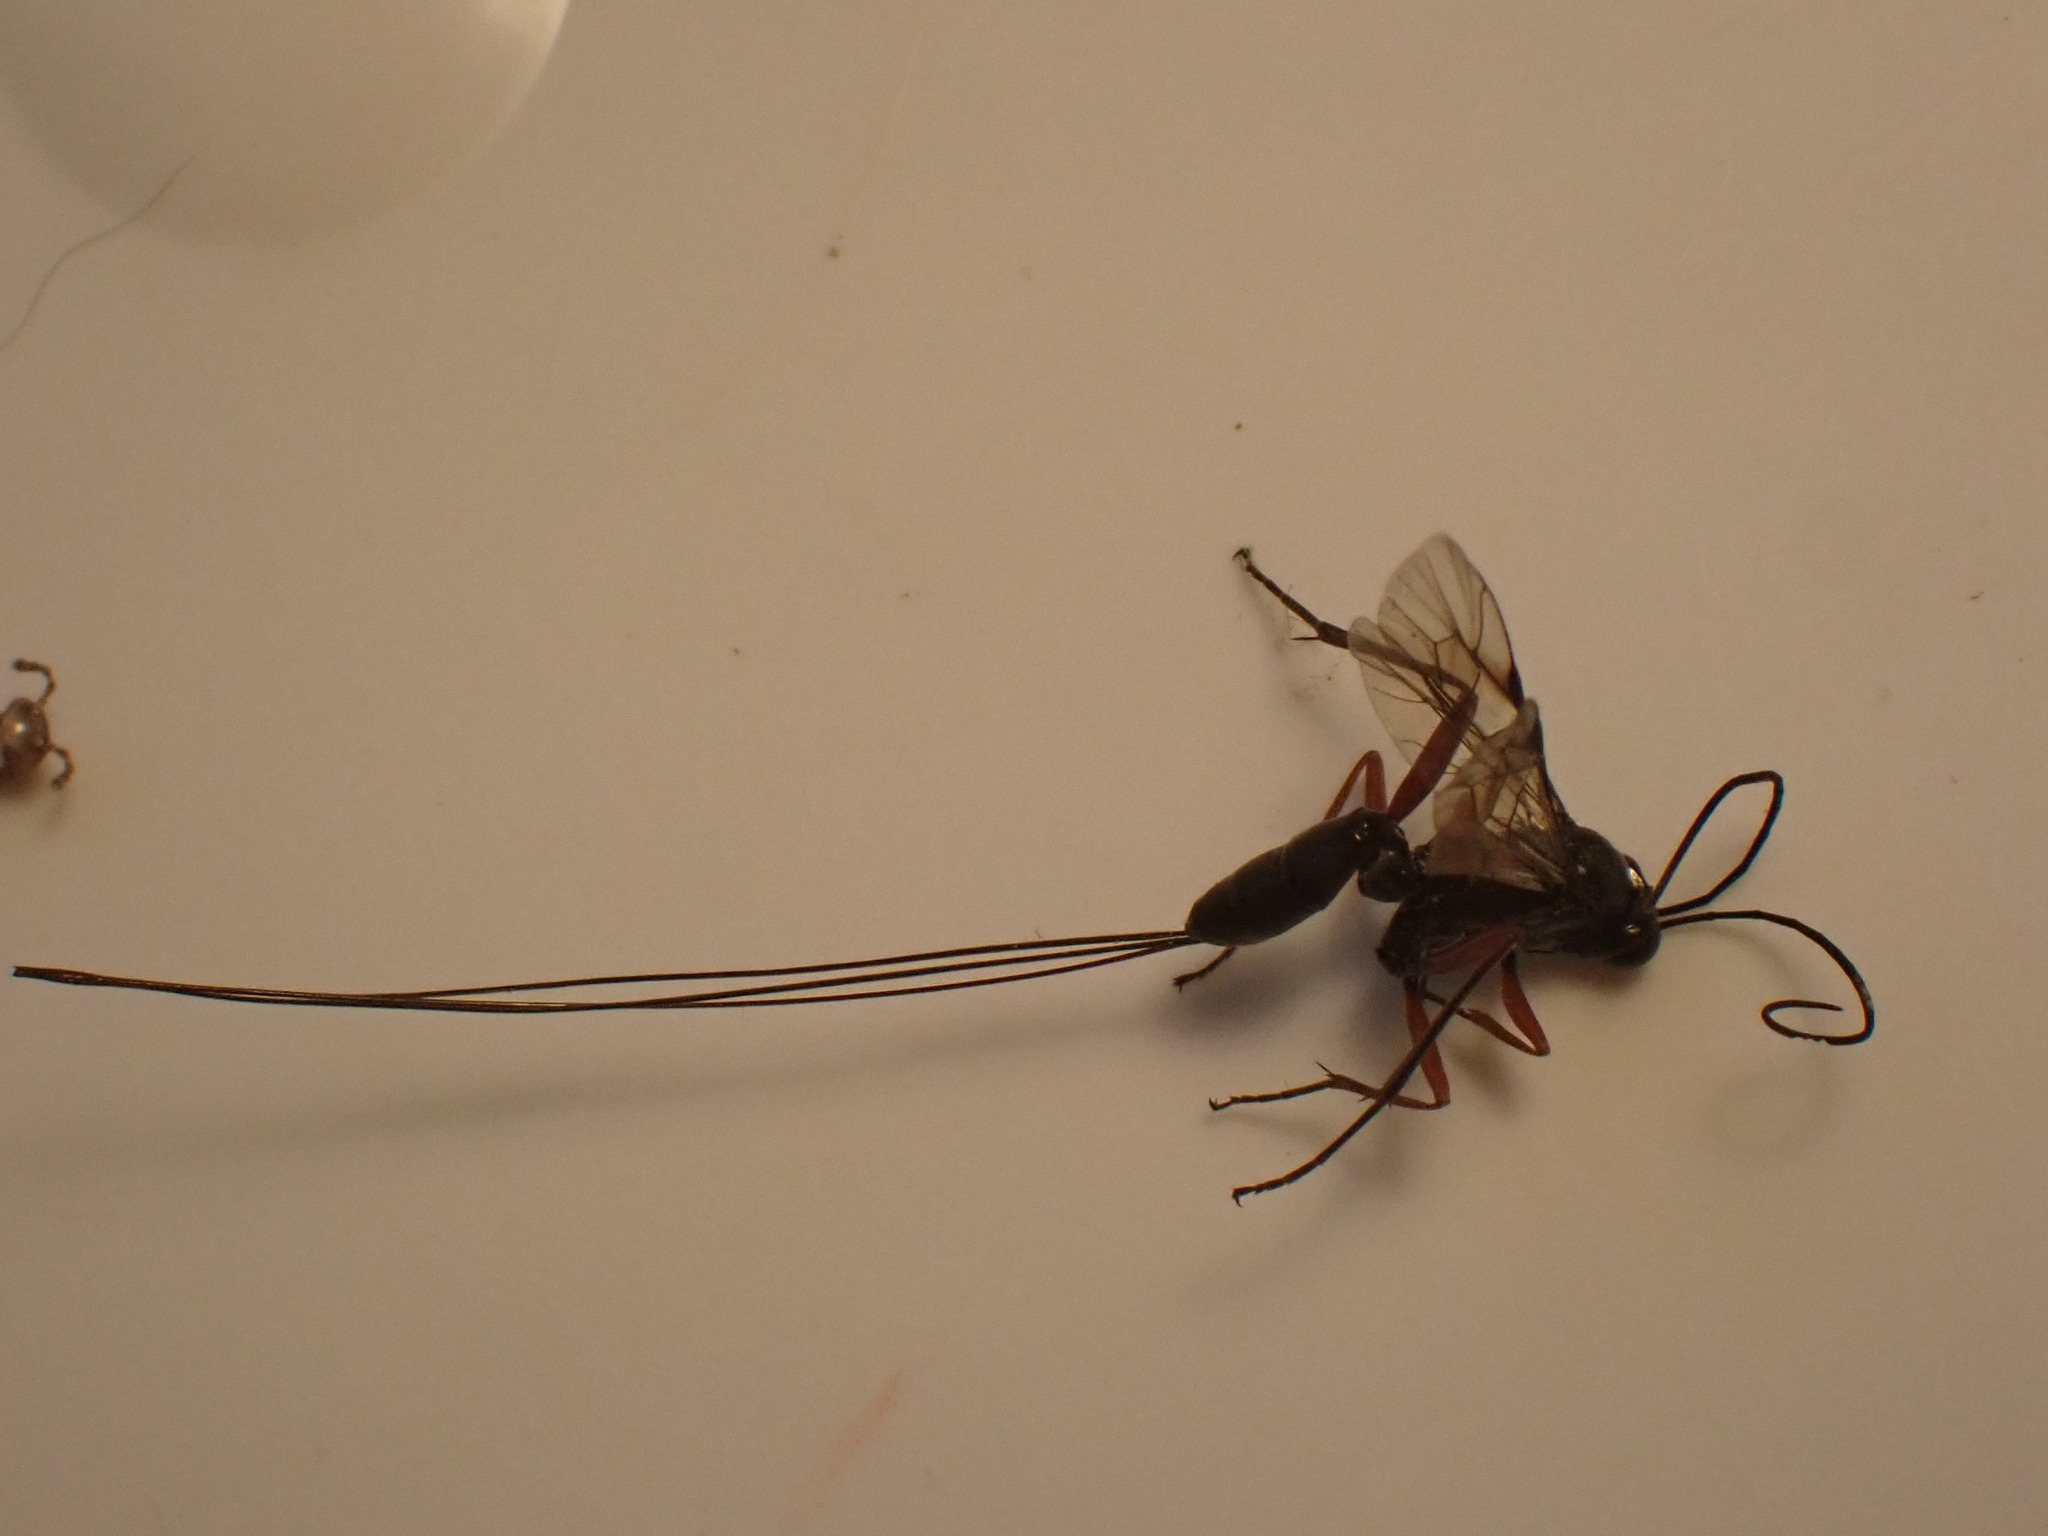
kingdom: Animalia
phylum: Arthropoda
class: Insecta
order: Hymenoptera
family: Ichneumonidae
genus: Stenarella
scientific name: Stenarella domator
